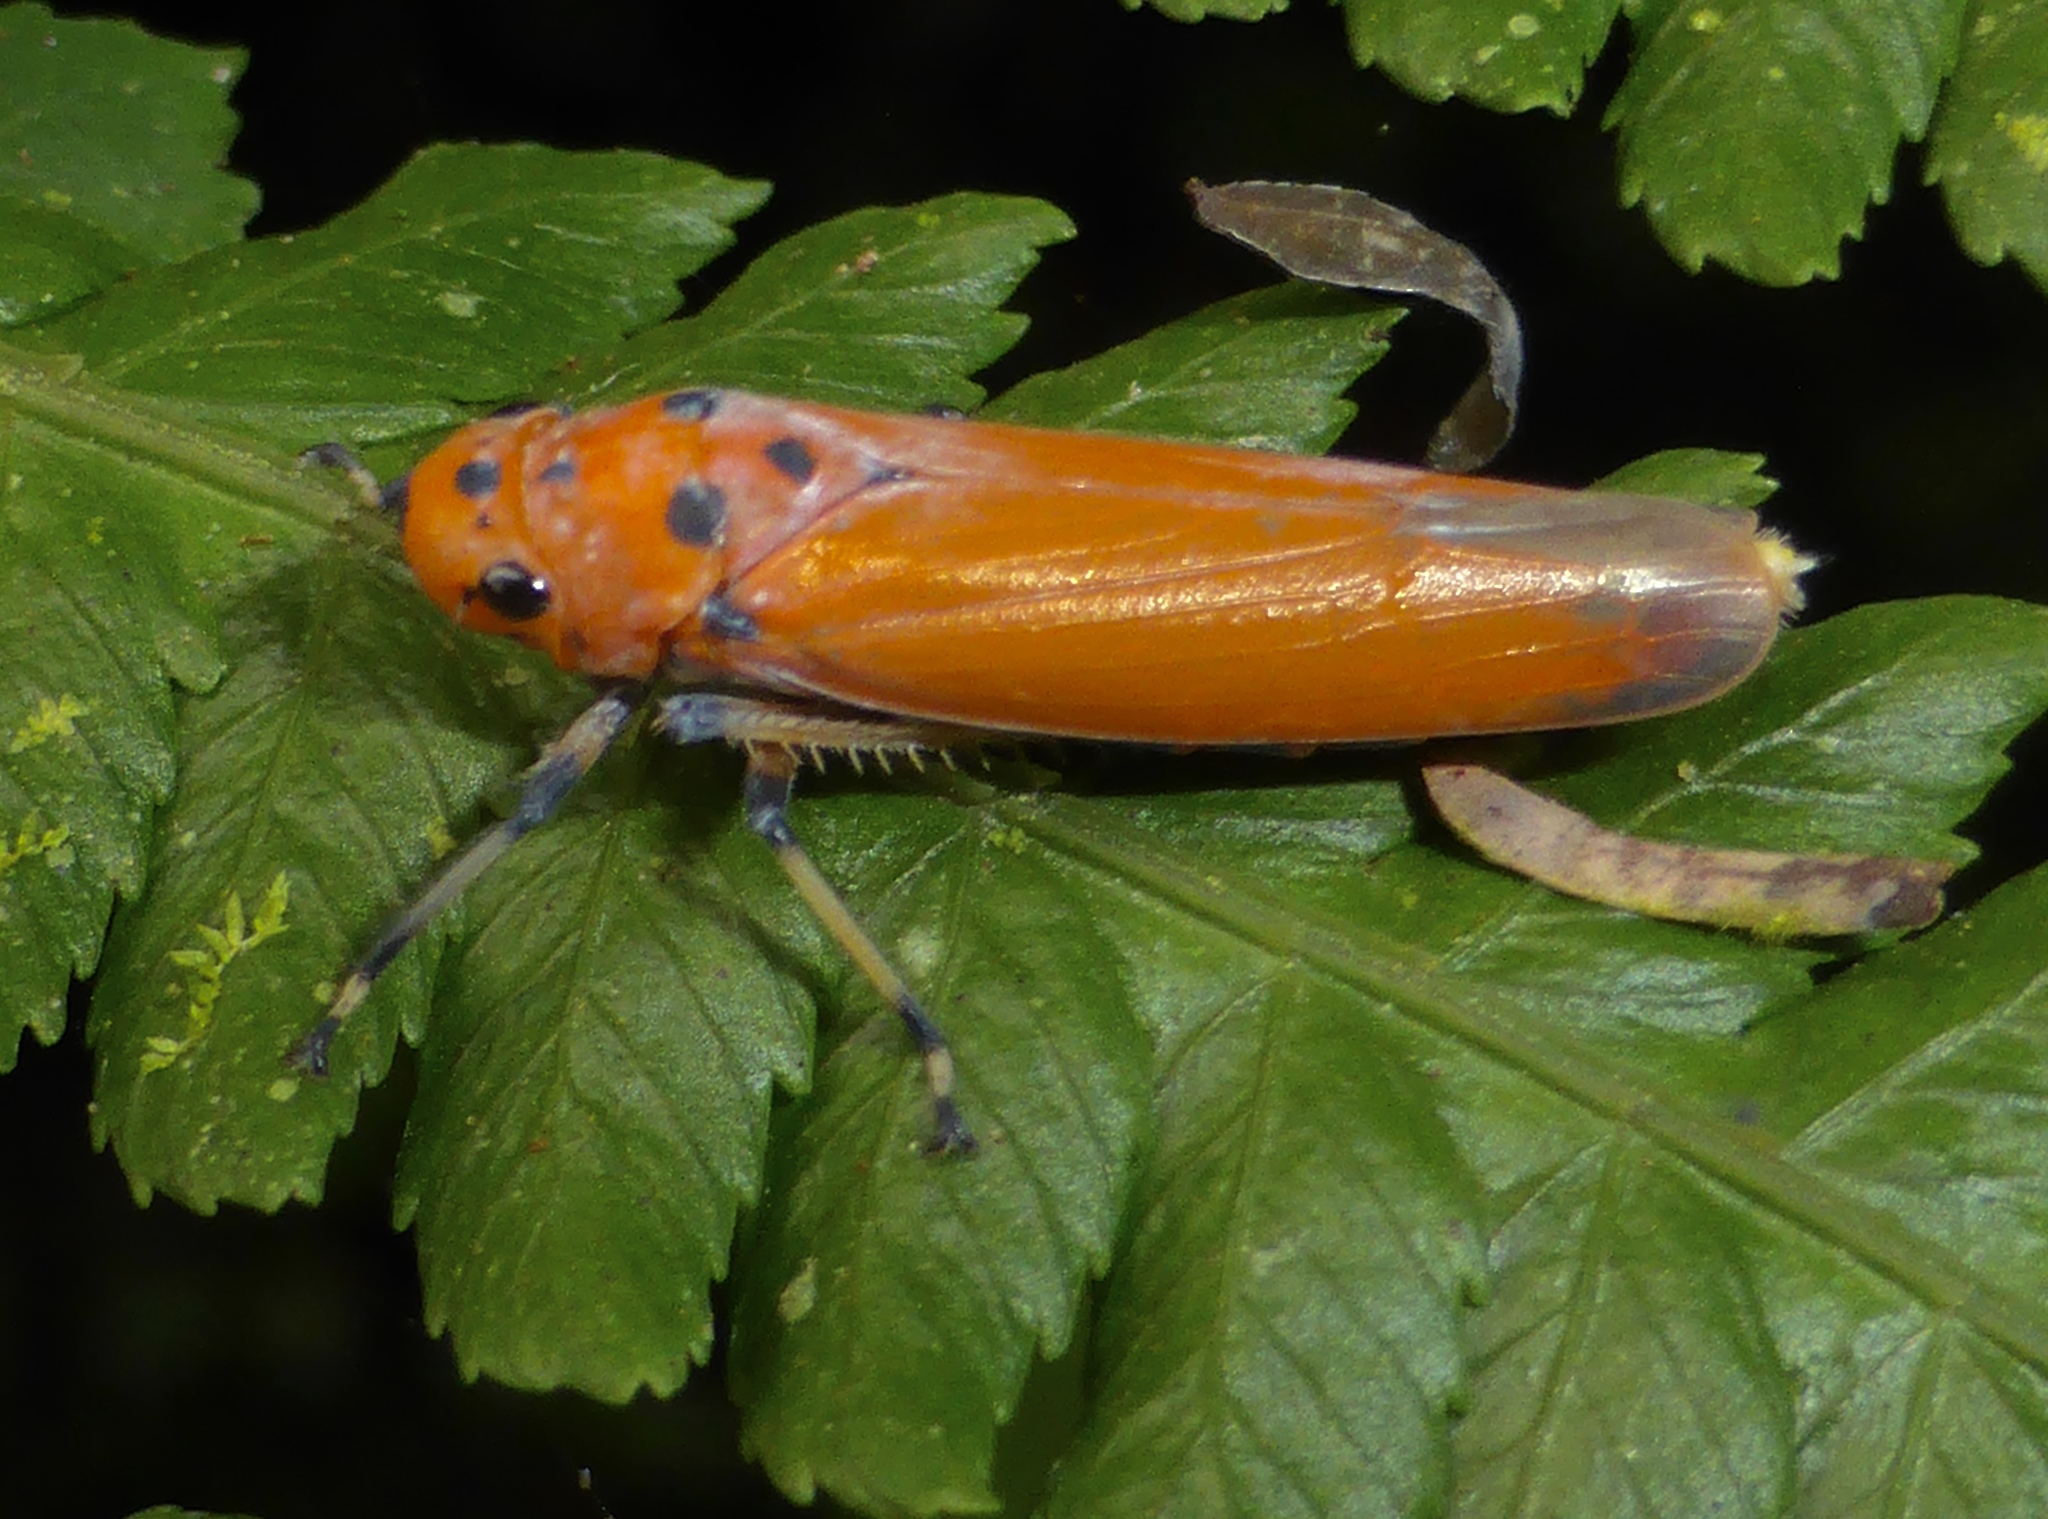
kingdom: Animalia
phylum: Arthropoda
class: Insecta
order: Hemiptera
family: Cicadellidae
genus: Bothrogonia
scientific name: Bothrogonia addita
